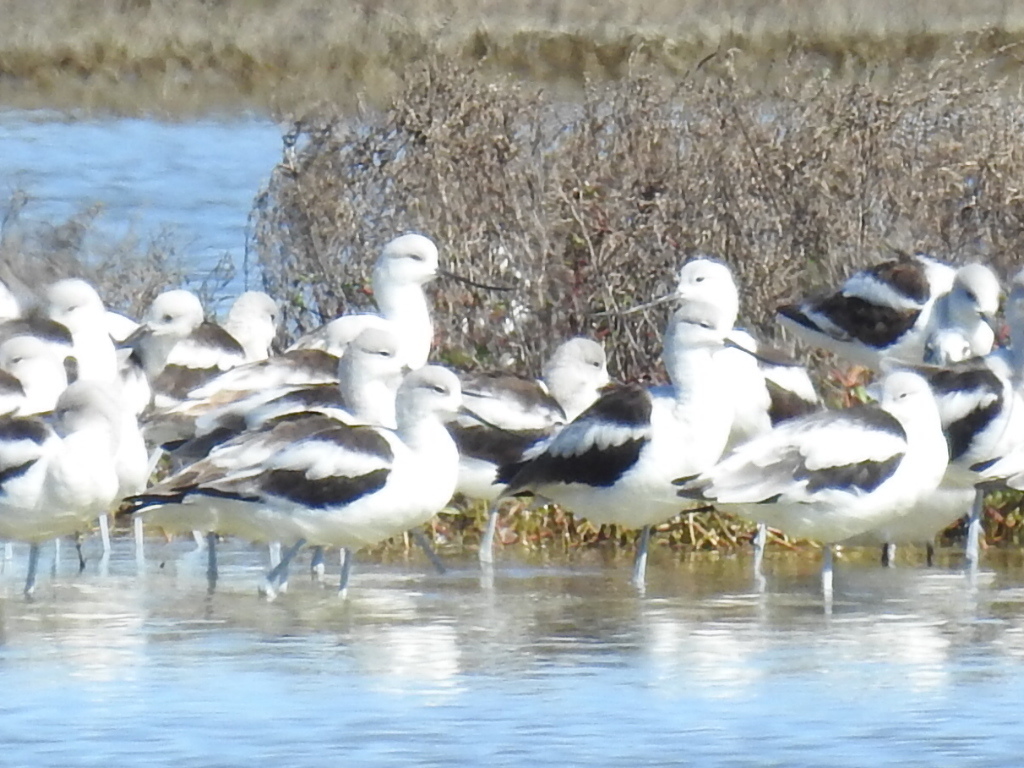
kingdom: Animalia
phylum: Chordata
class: Aves
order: Charadriiformes
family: Recurvirostridae
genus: Recurvirostra
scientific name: Recurvirostra americana
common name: American avocet
